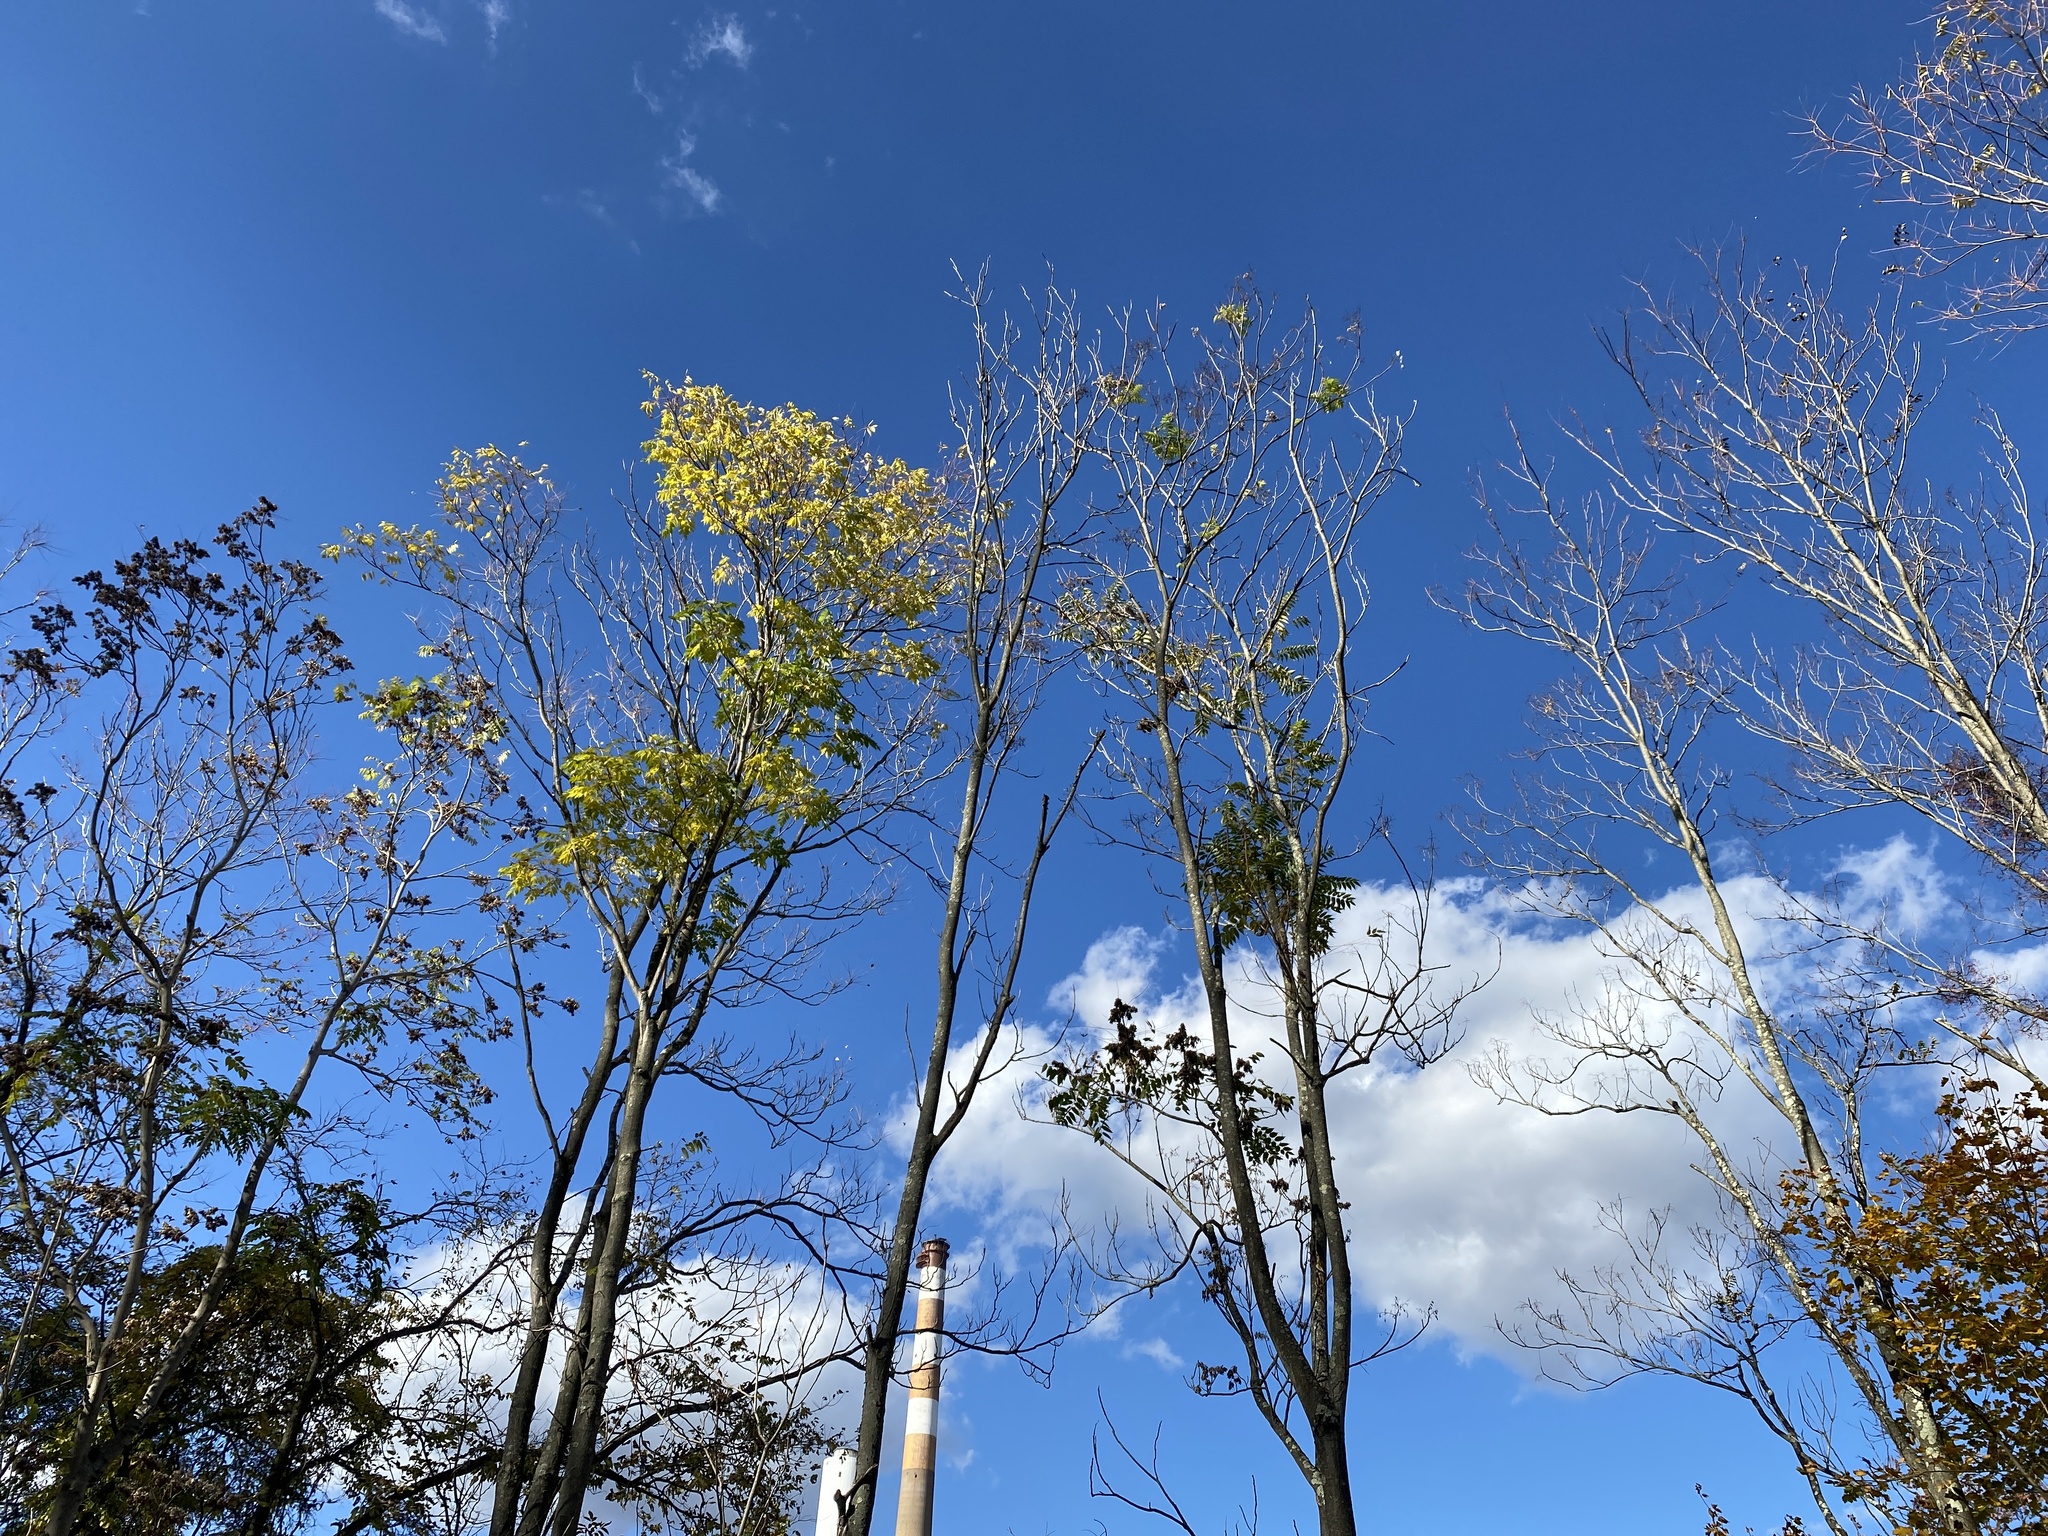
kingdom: Plantae
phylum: Tracheophyta
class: Magnoliopsida
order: Sapindales
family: Simaroubaceae
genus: Ailanthus
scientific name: Ailanthus altissima
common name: Tree-of-heaven
